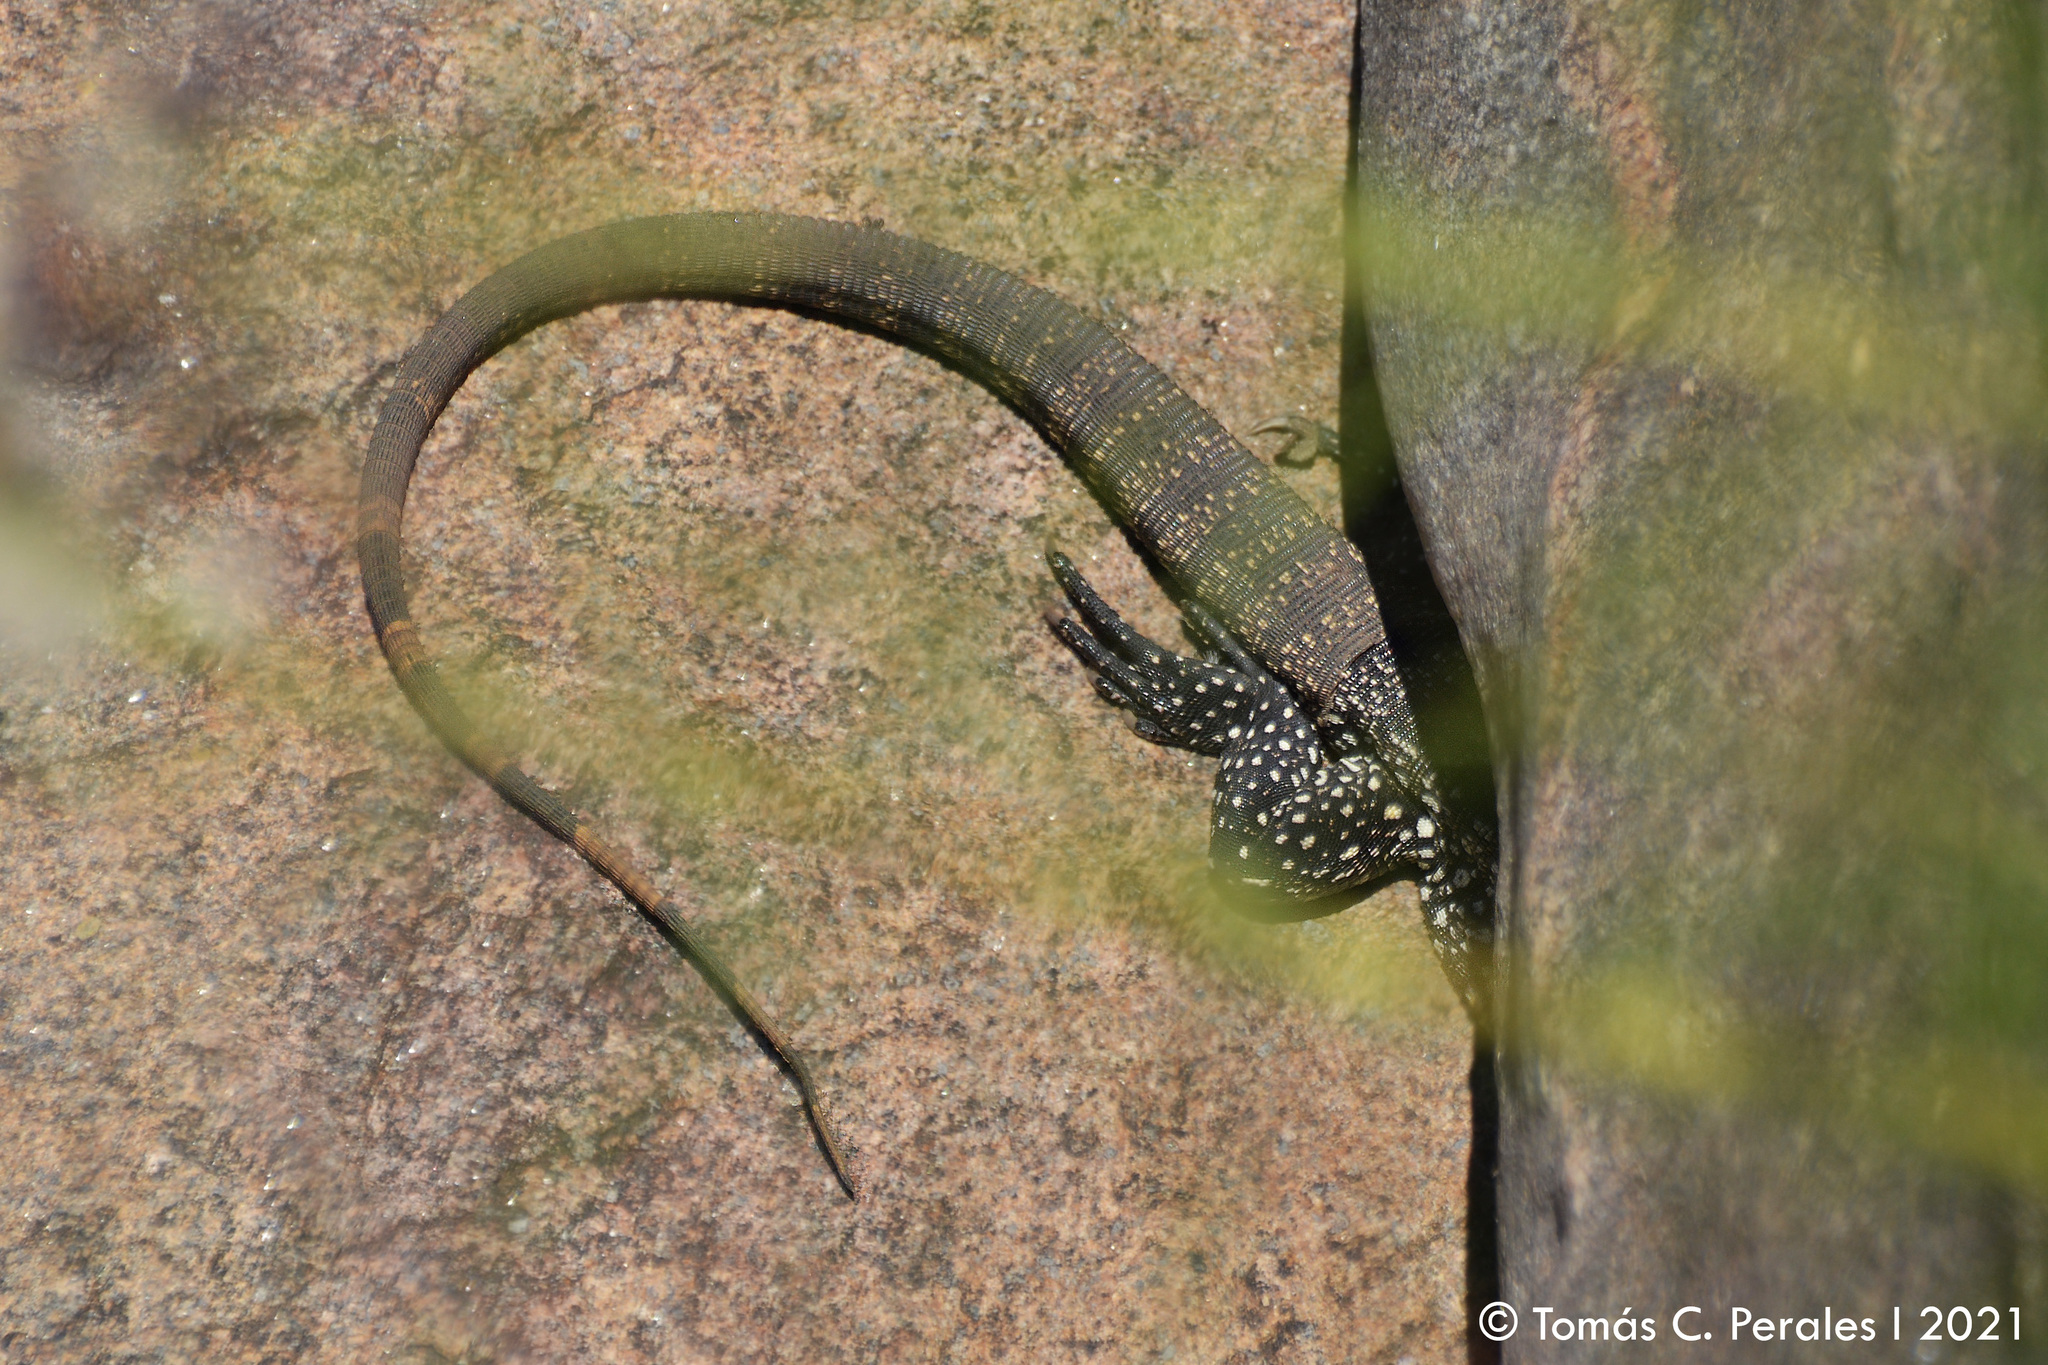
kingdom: Animalia
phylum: Chordata
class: Squamata
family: Teiidae
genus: Salvator
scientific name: Salvator merianae
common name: Argentine black and white tegu
